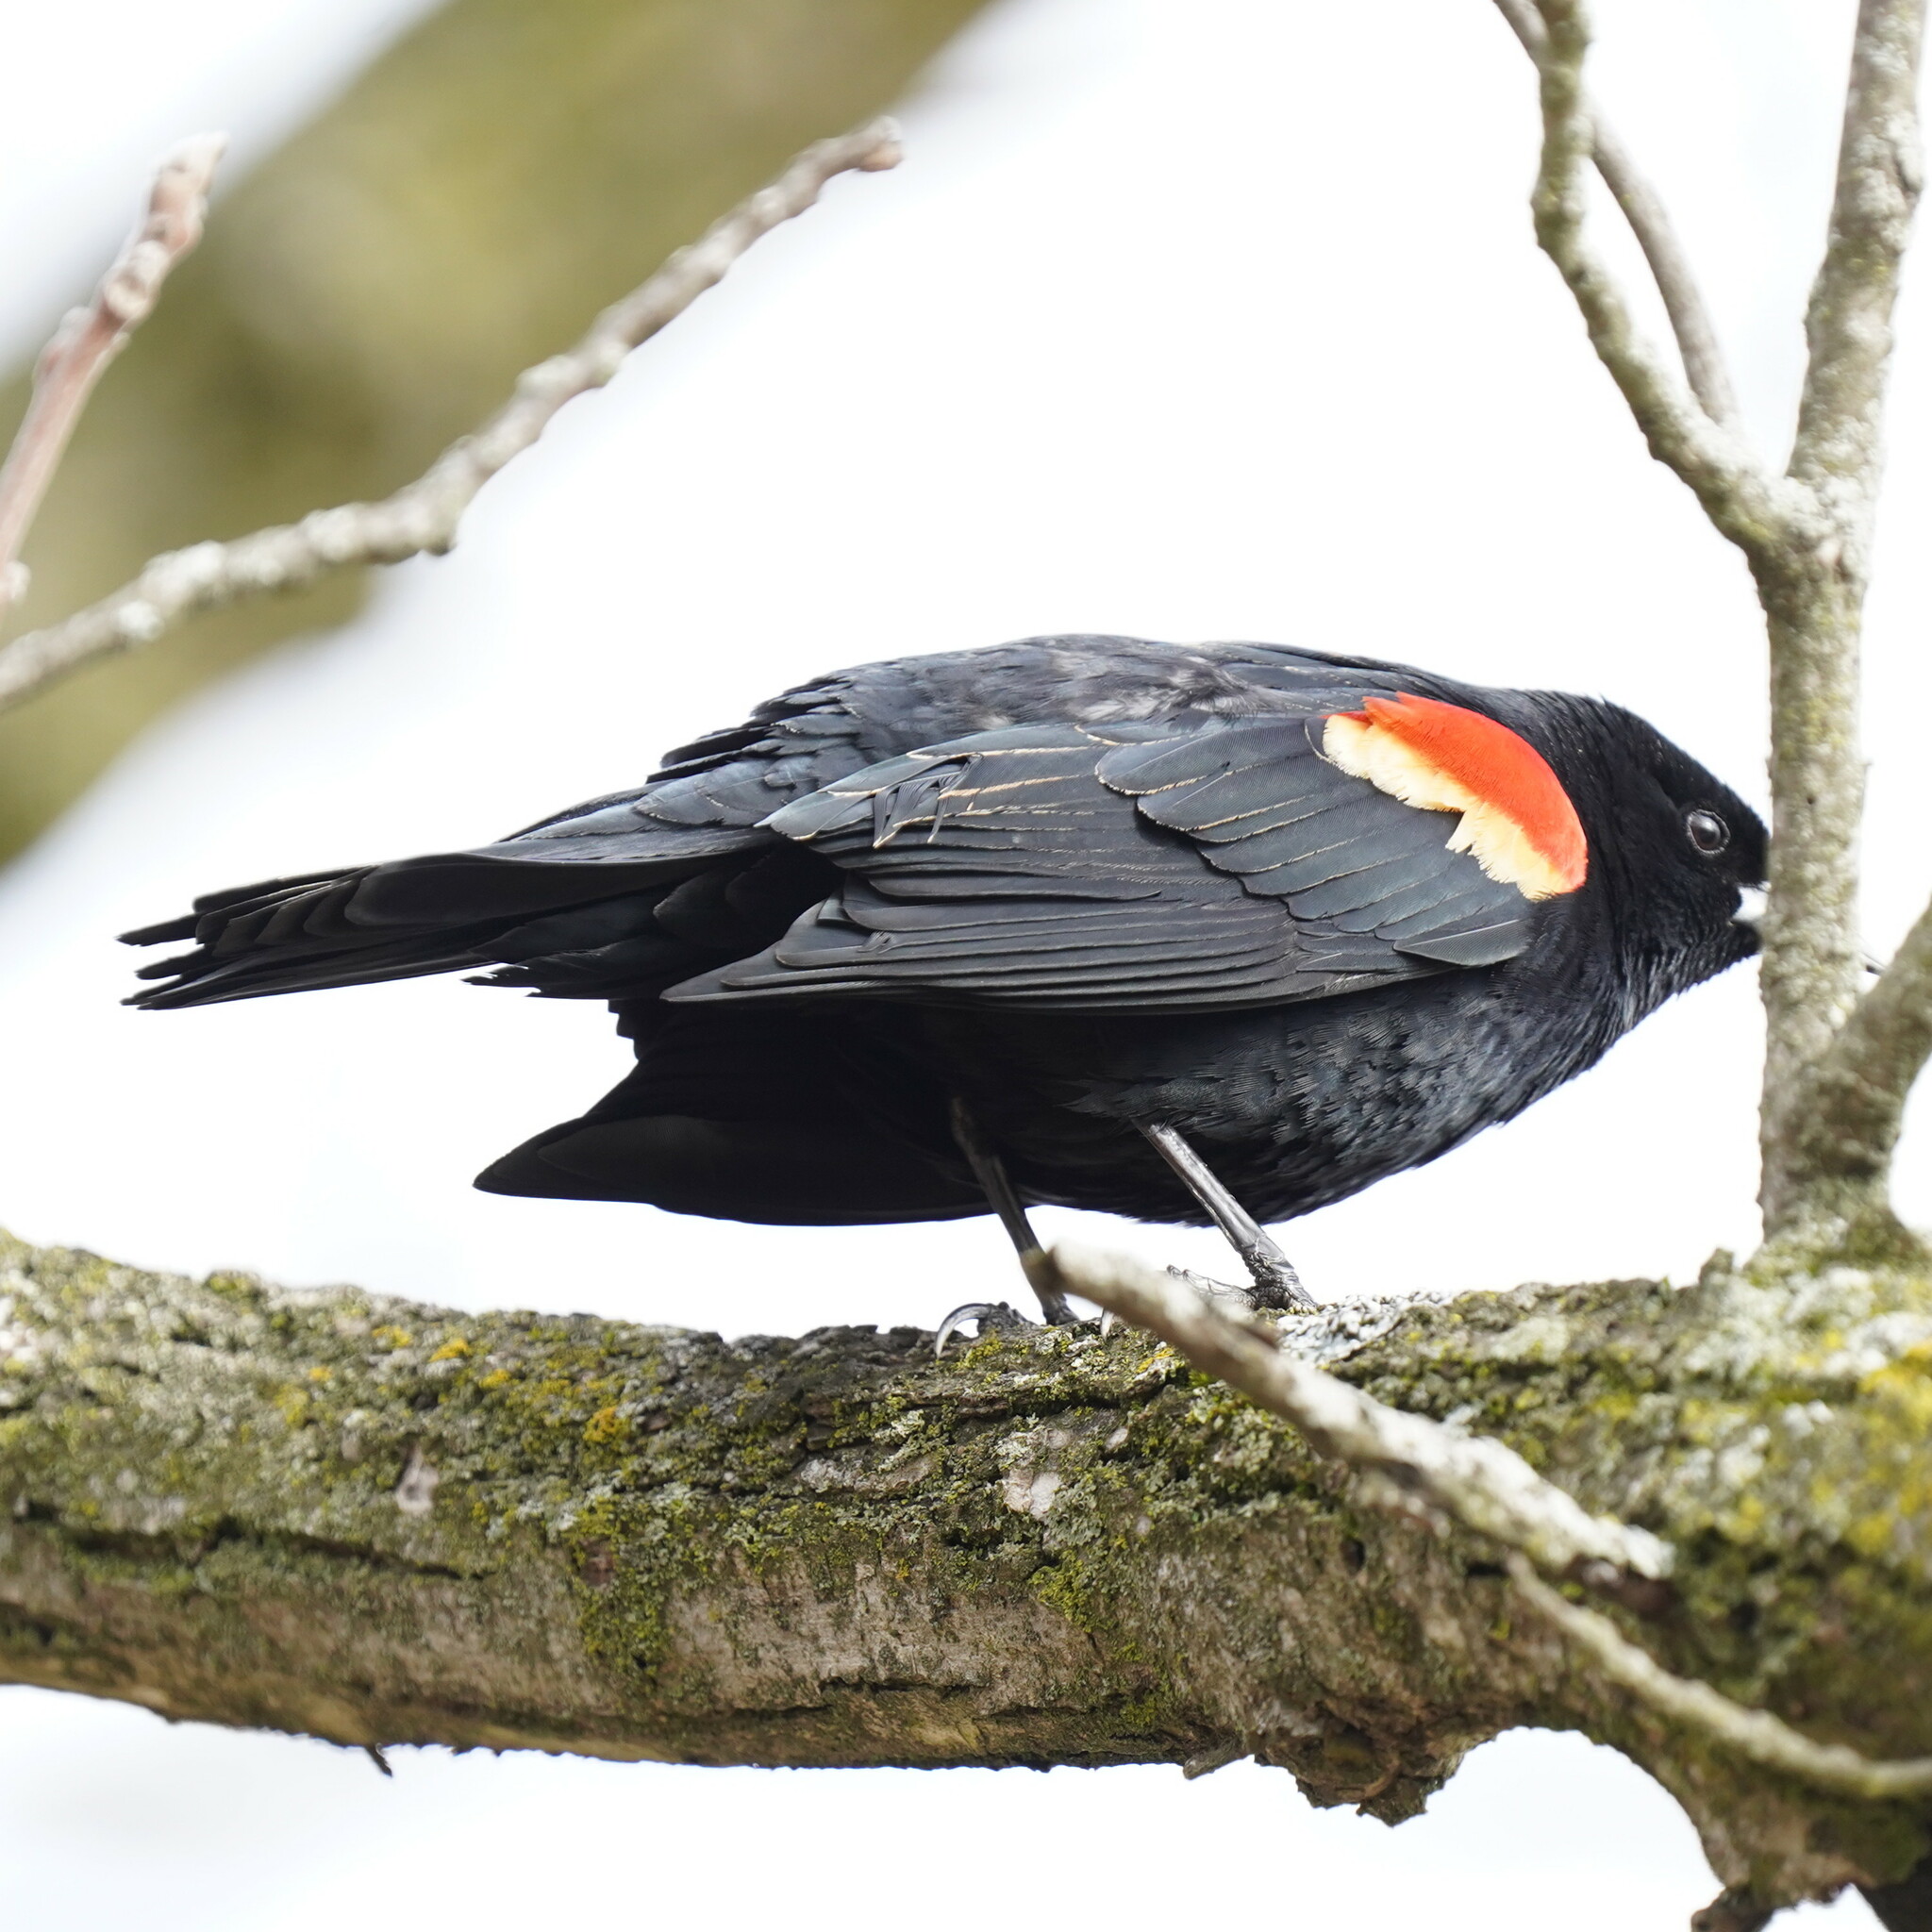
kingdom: Animalia
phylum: Chordata
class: Aves
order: Passeriformes
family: Icteridae
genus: Agelaius
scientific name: Agelaius phoeniceus
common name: Red-winged blackbird
